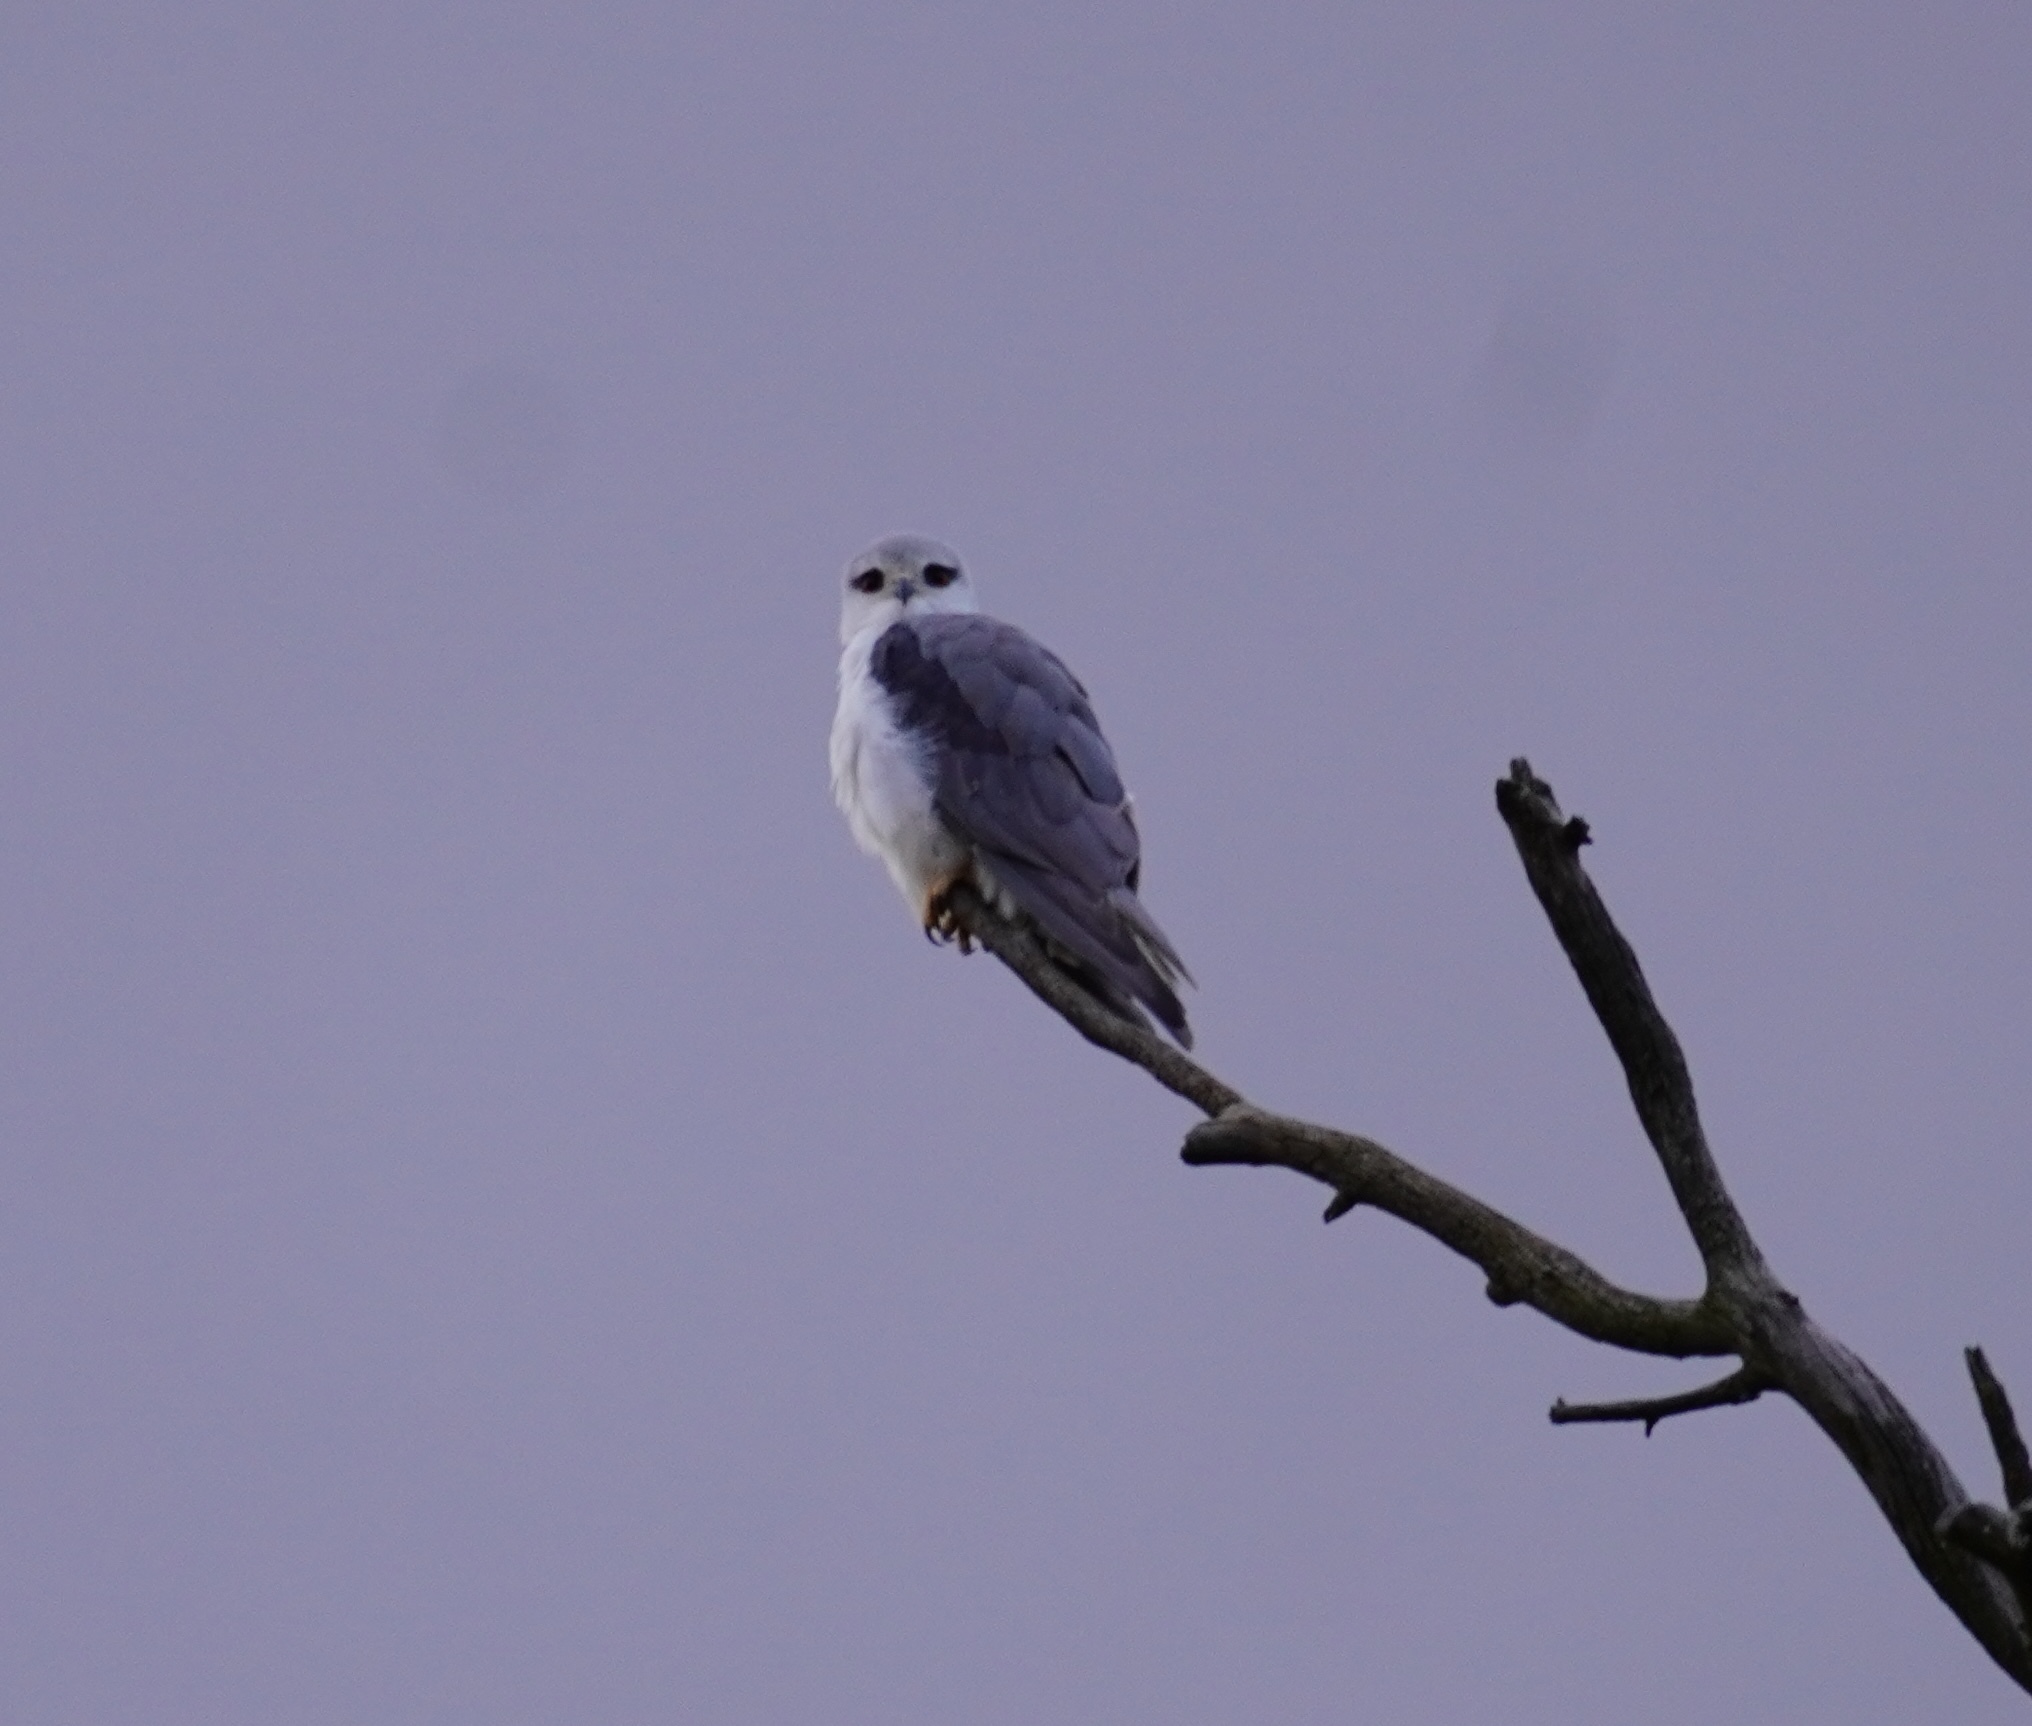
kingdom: Animalia
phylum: Chordata
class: Aves
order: Accipitriformes
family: Accipitridae
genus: Elanus
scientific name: Elanus caeruleus
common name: Black-winged kite
